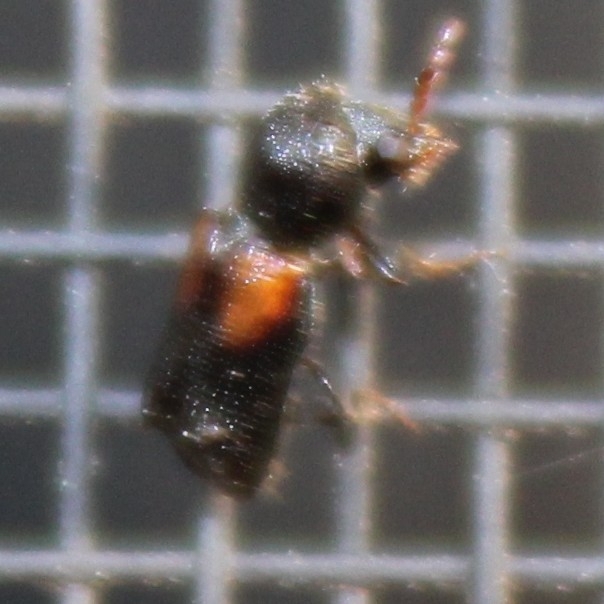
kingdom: Animalia
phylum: Arthropoda
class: Insecta
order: Coleoptera
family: Bostrichidae
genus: Xylobiops
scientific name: Xylobiops basilaris
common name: Red-shouldered bostrichid
